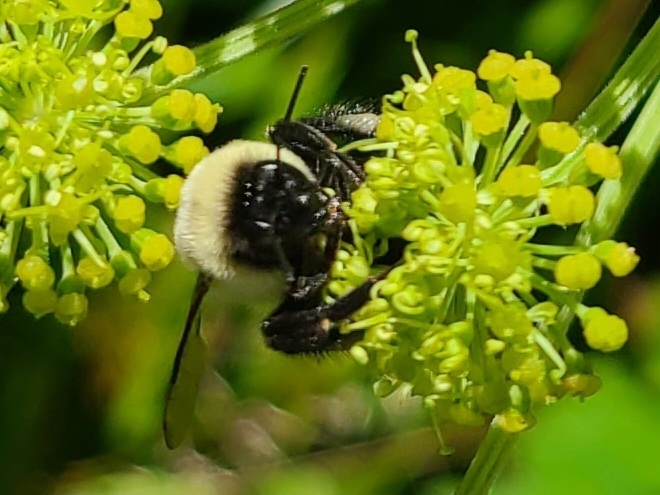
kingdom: Animalia
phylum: Arthropoda
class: Insecta
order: Hymenoptera
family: Apidae
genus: Bombus
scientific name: Bombus impatiens
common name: Common eastern bumble bee
